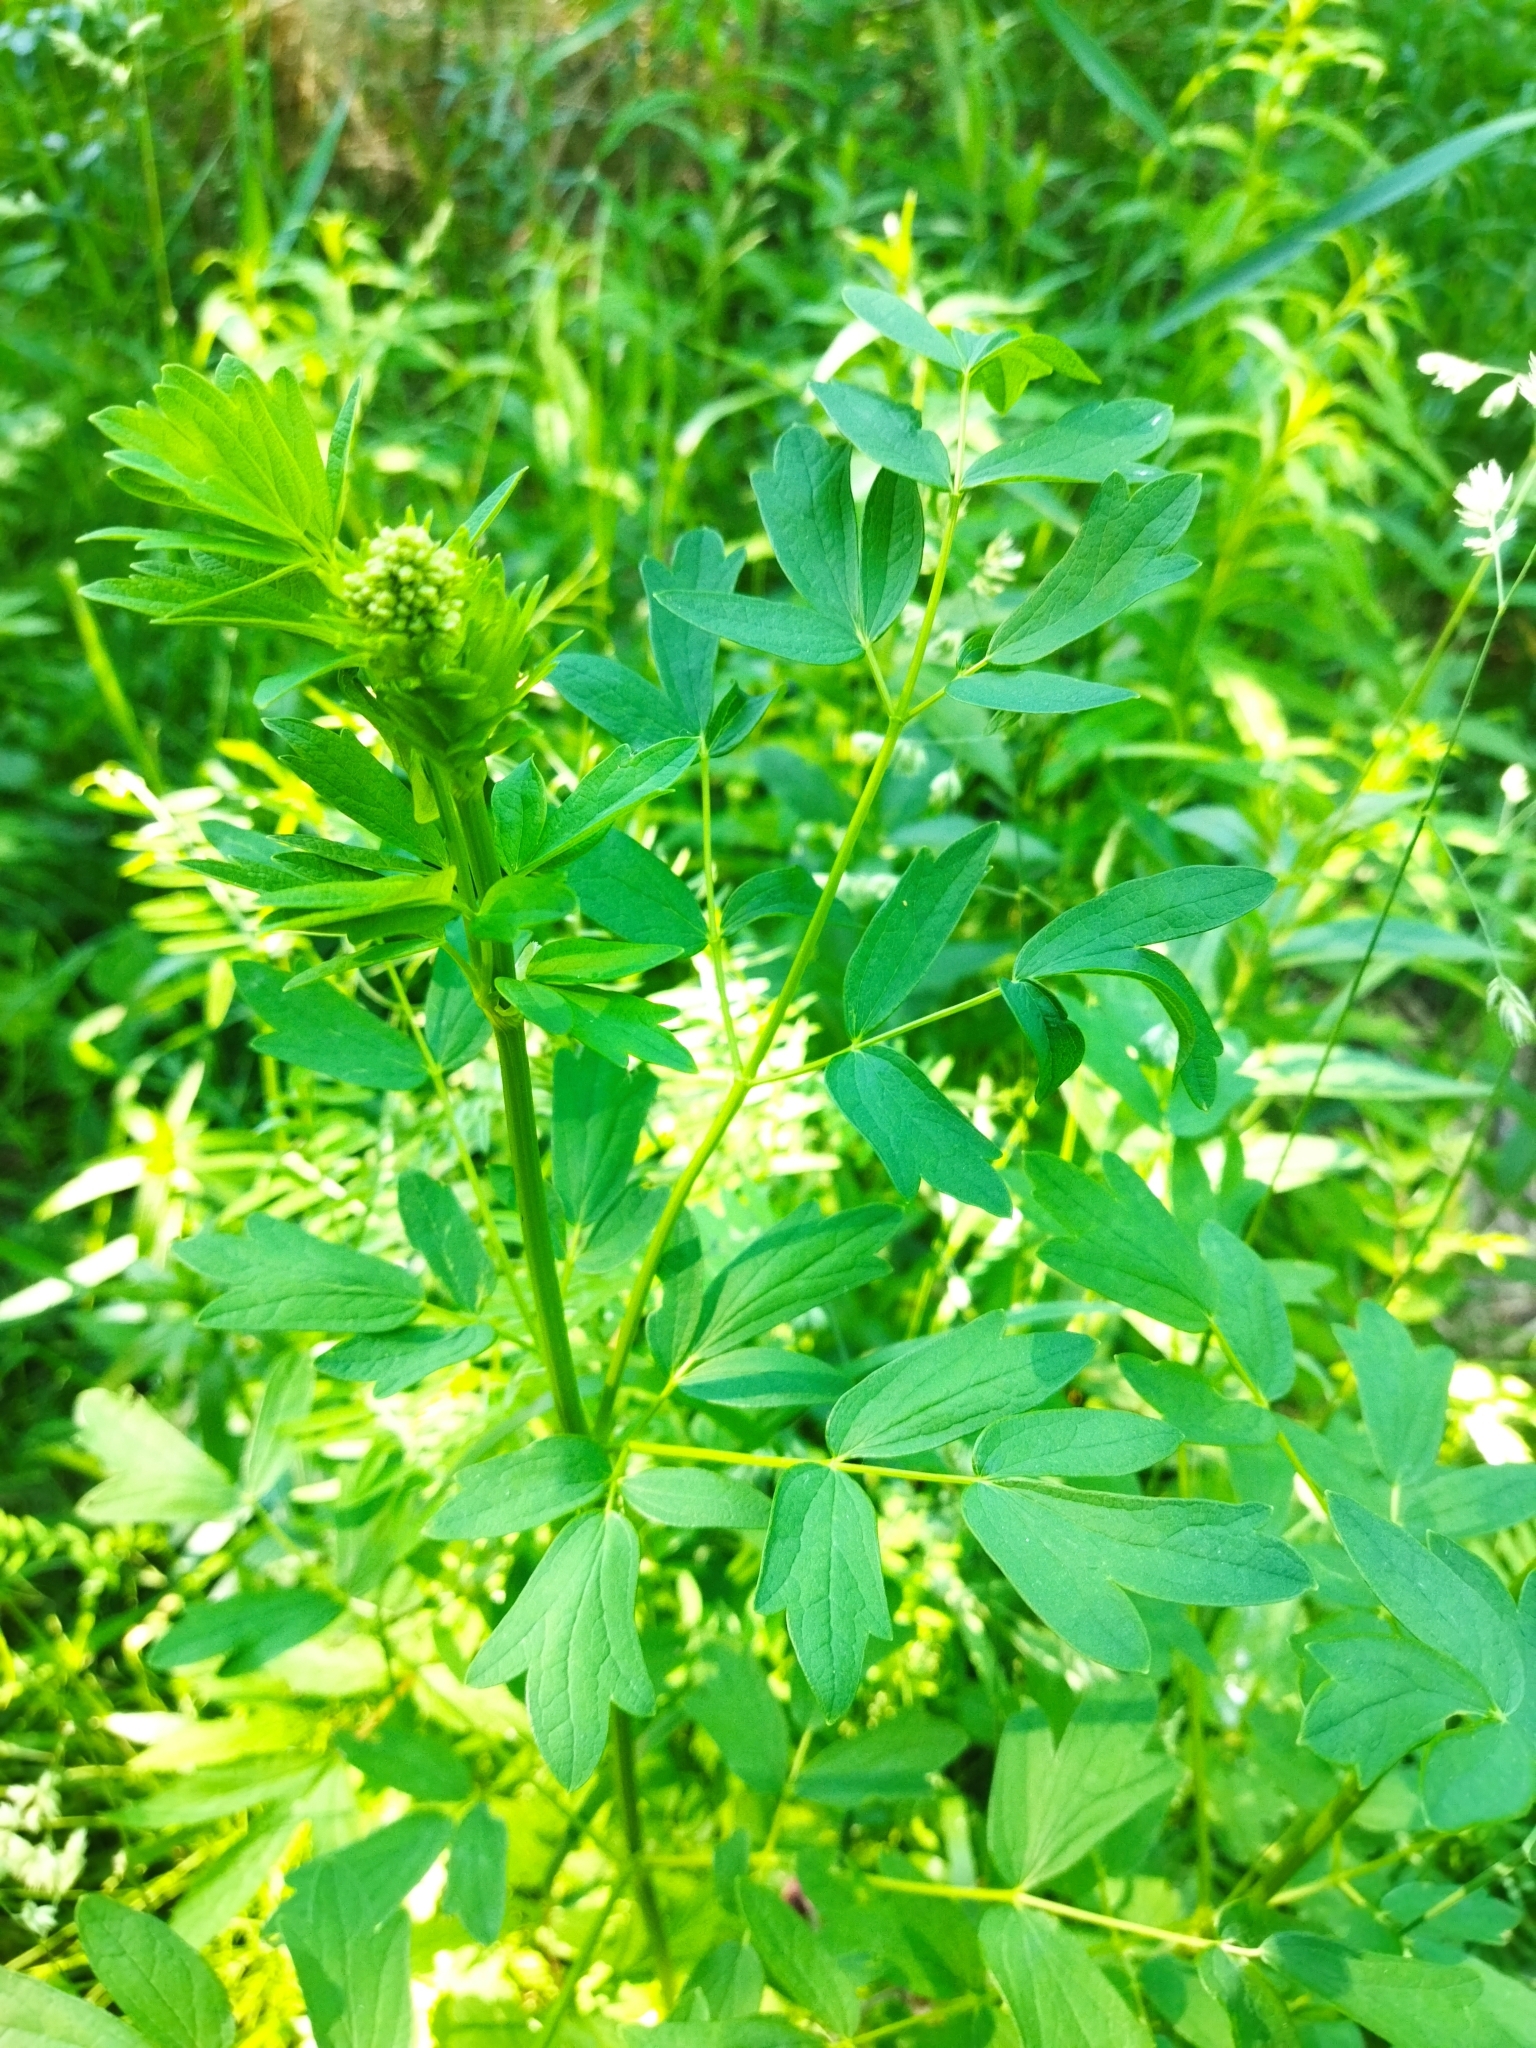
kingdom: Plantae
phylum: Tracheophyta
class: Magnoliopsida
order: Ranunculales
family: Ranunculaceae
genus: Thalictrum
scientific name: Thalictrum flavum
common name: Common meadow-rue
